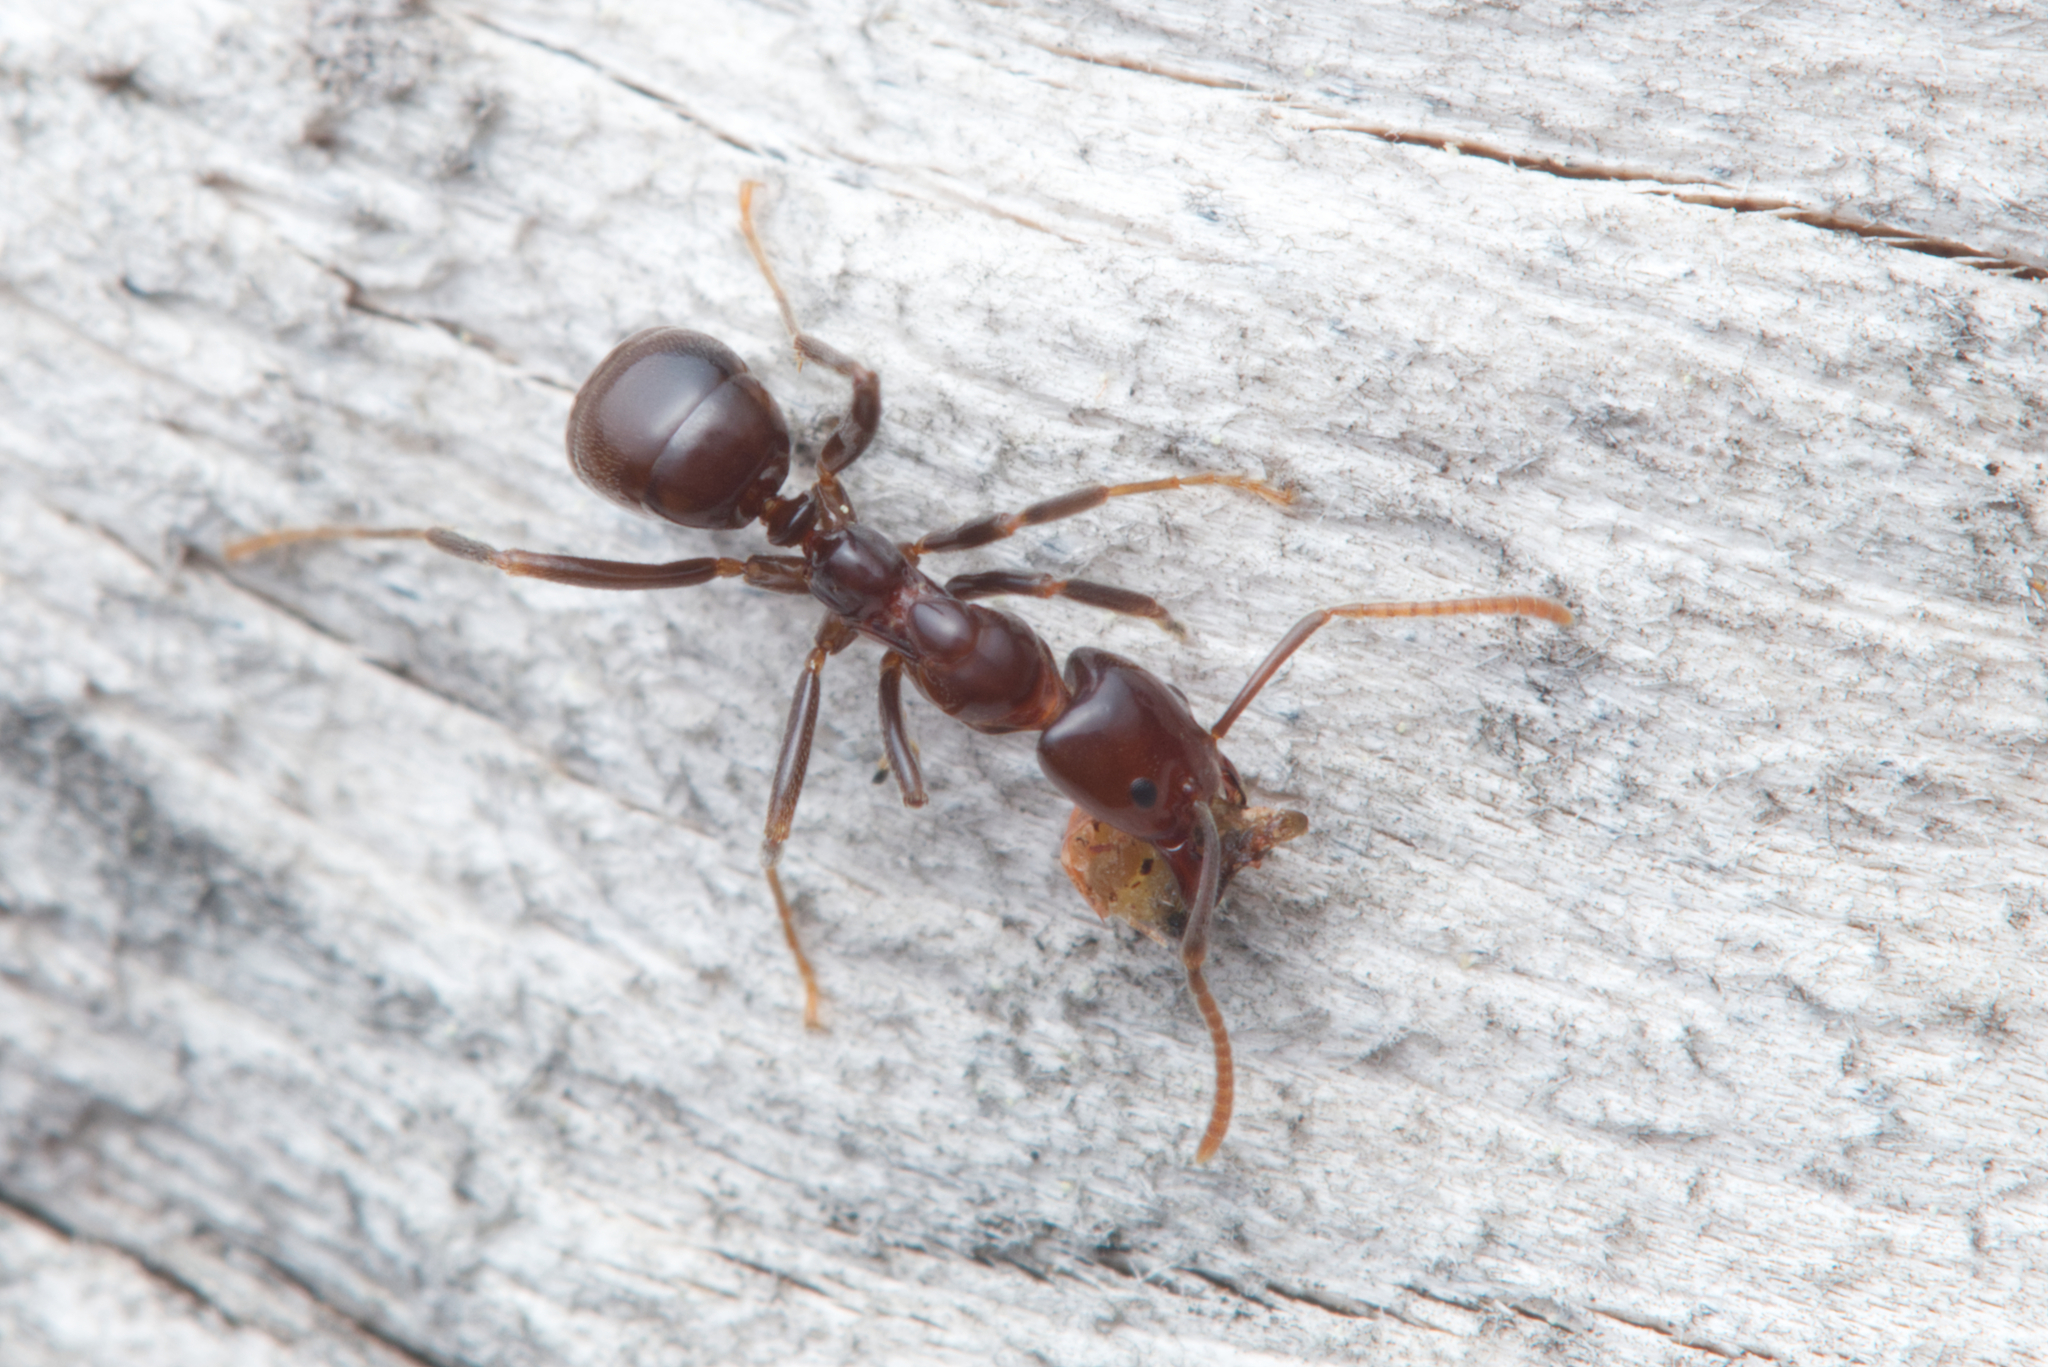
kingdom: Animalia
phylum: Arthropoda
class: Insecta
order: Hymenoptera
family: Formicidae
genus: Papyrius
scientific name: Papyrius nitidus
